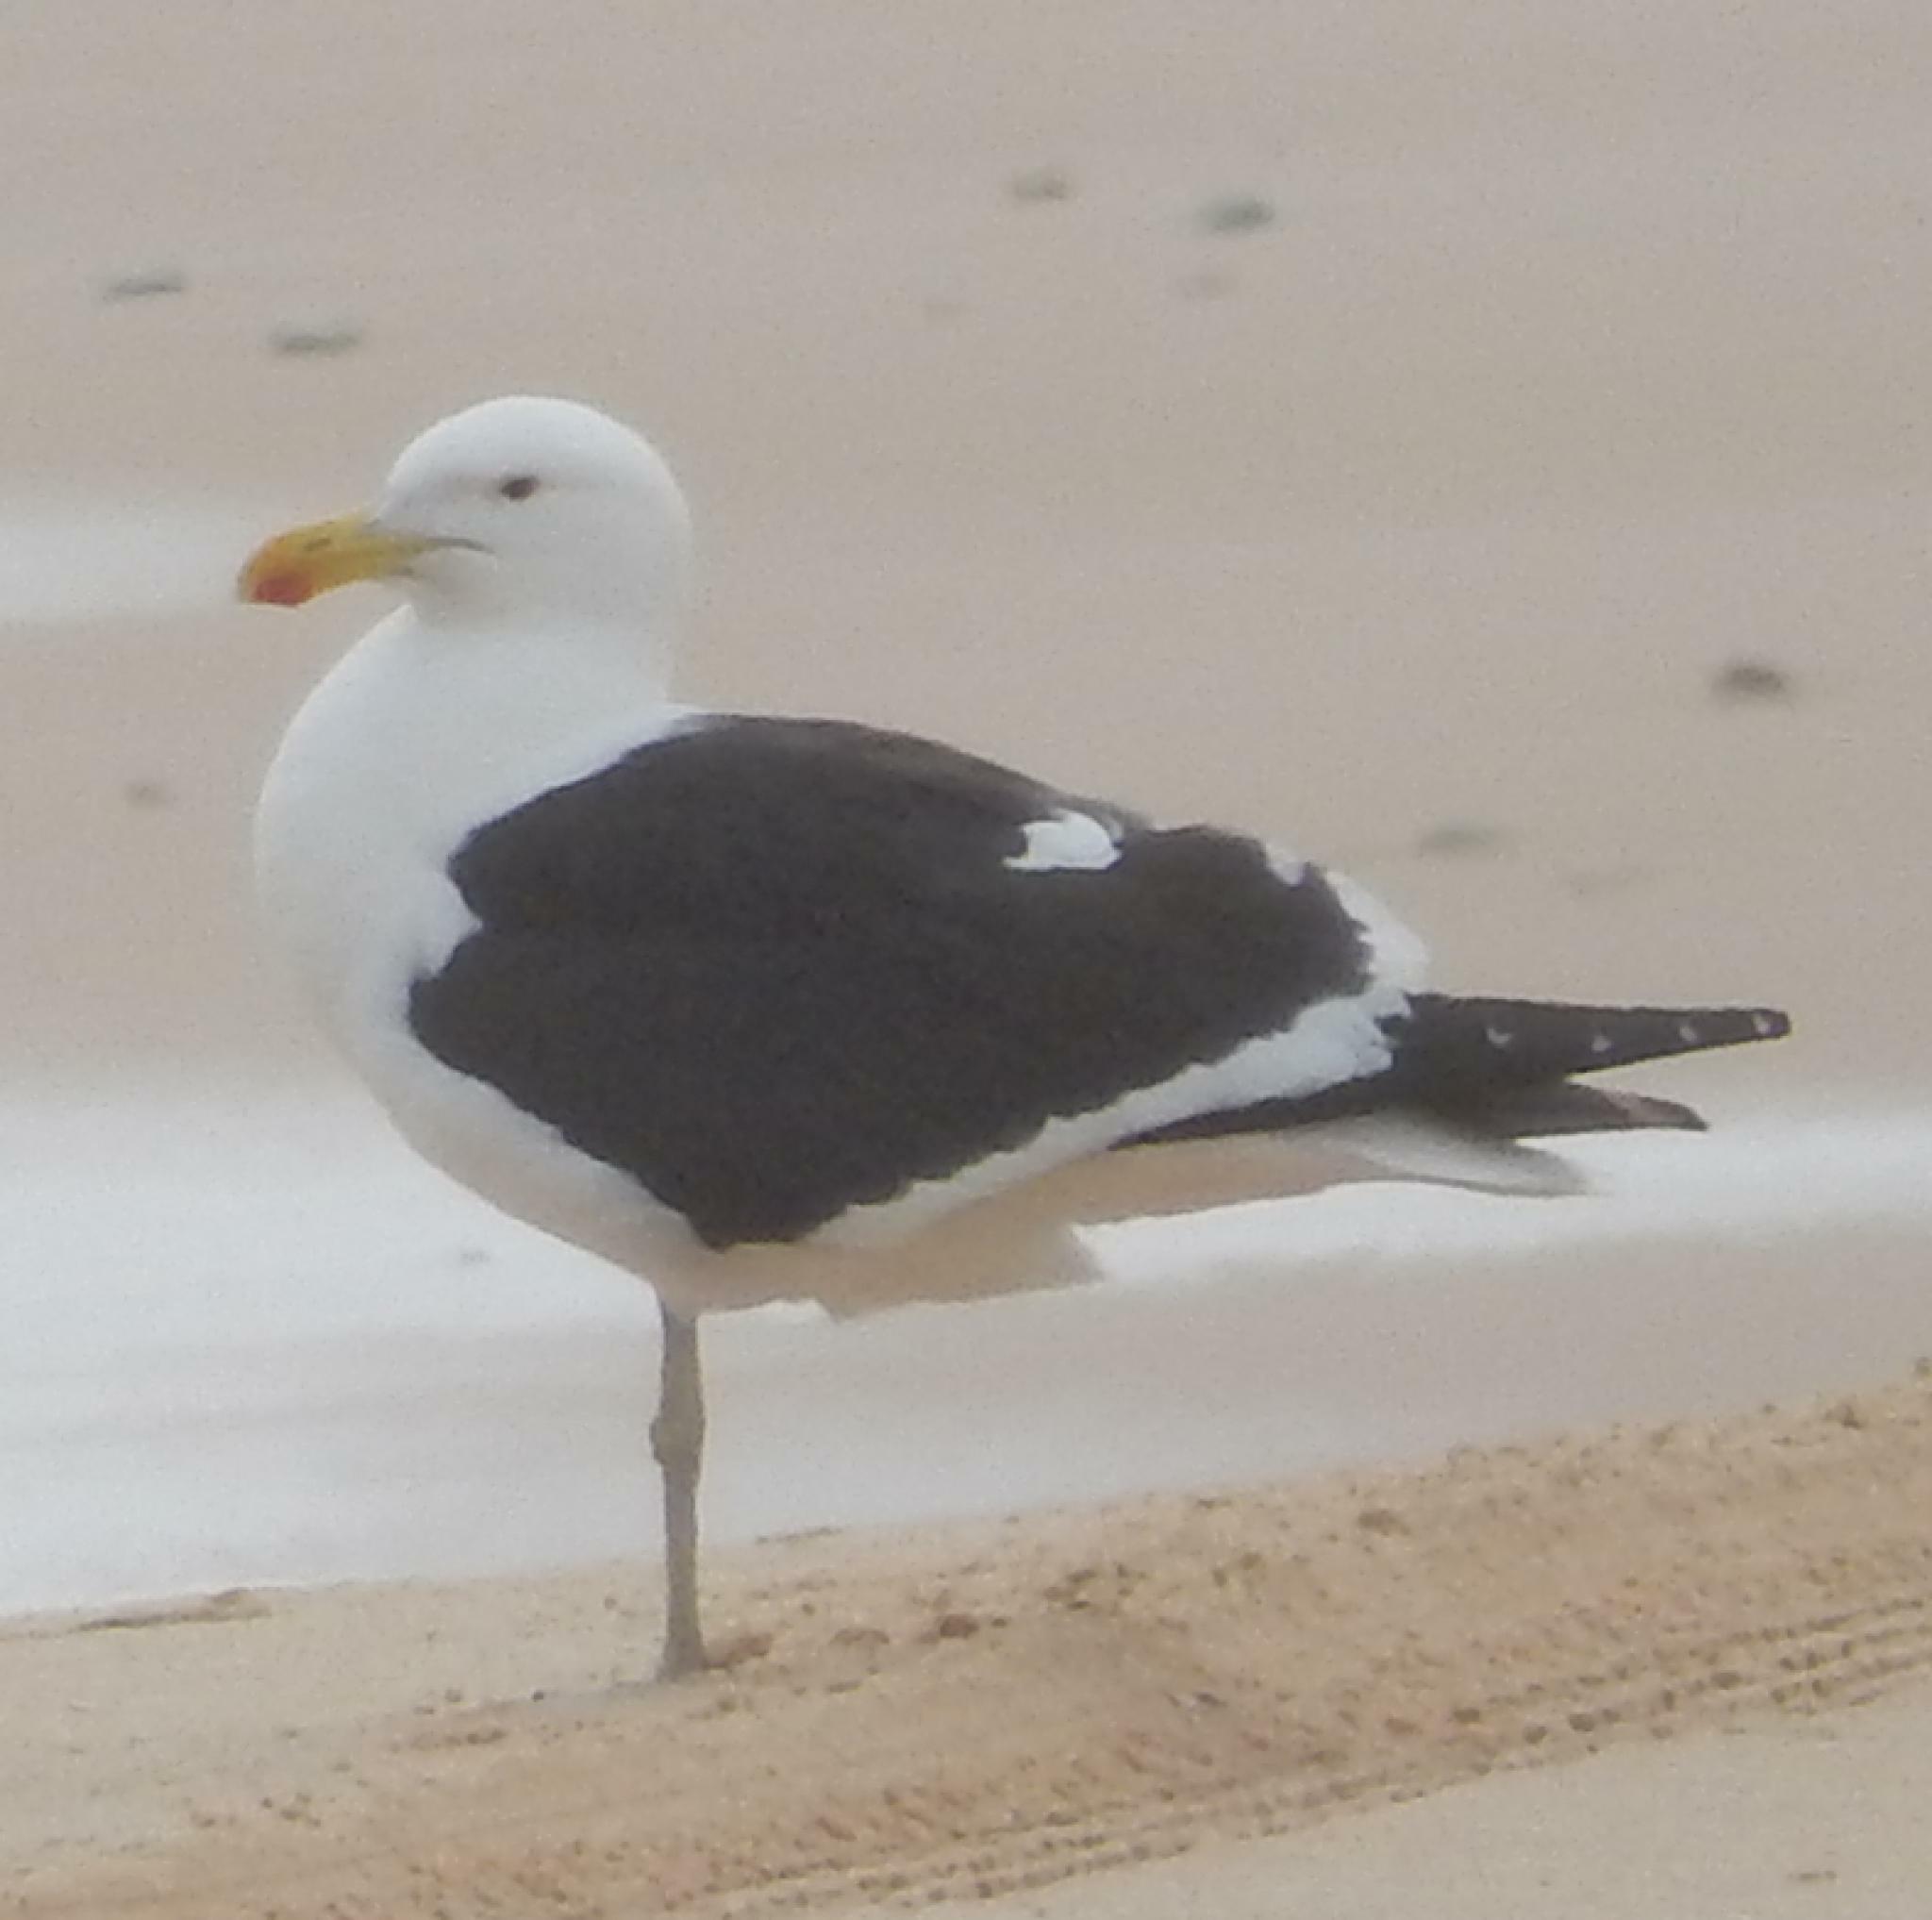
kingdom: Animalia
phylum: Chordata
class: Aves
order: Charadriiformes
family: Laridae
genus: Larus
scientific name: Larus dominicanus
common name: Kelp gull
